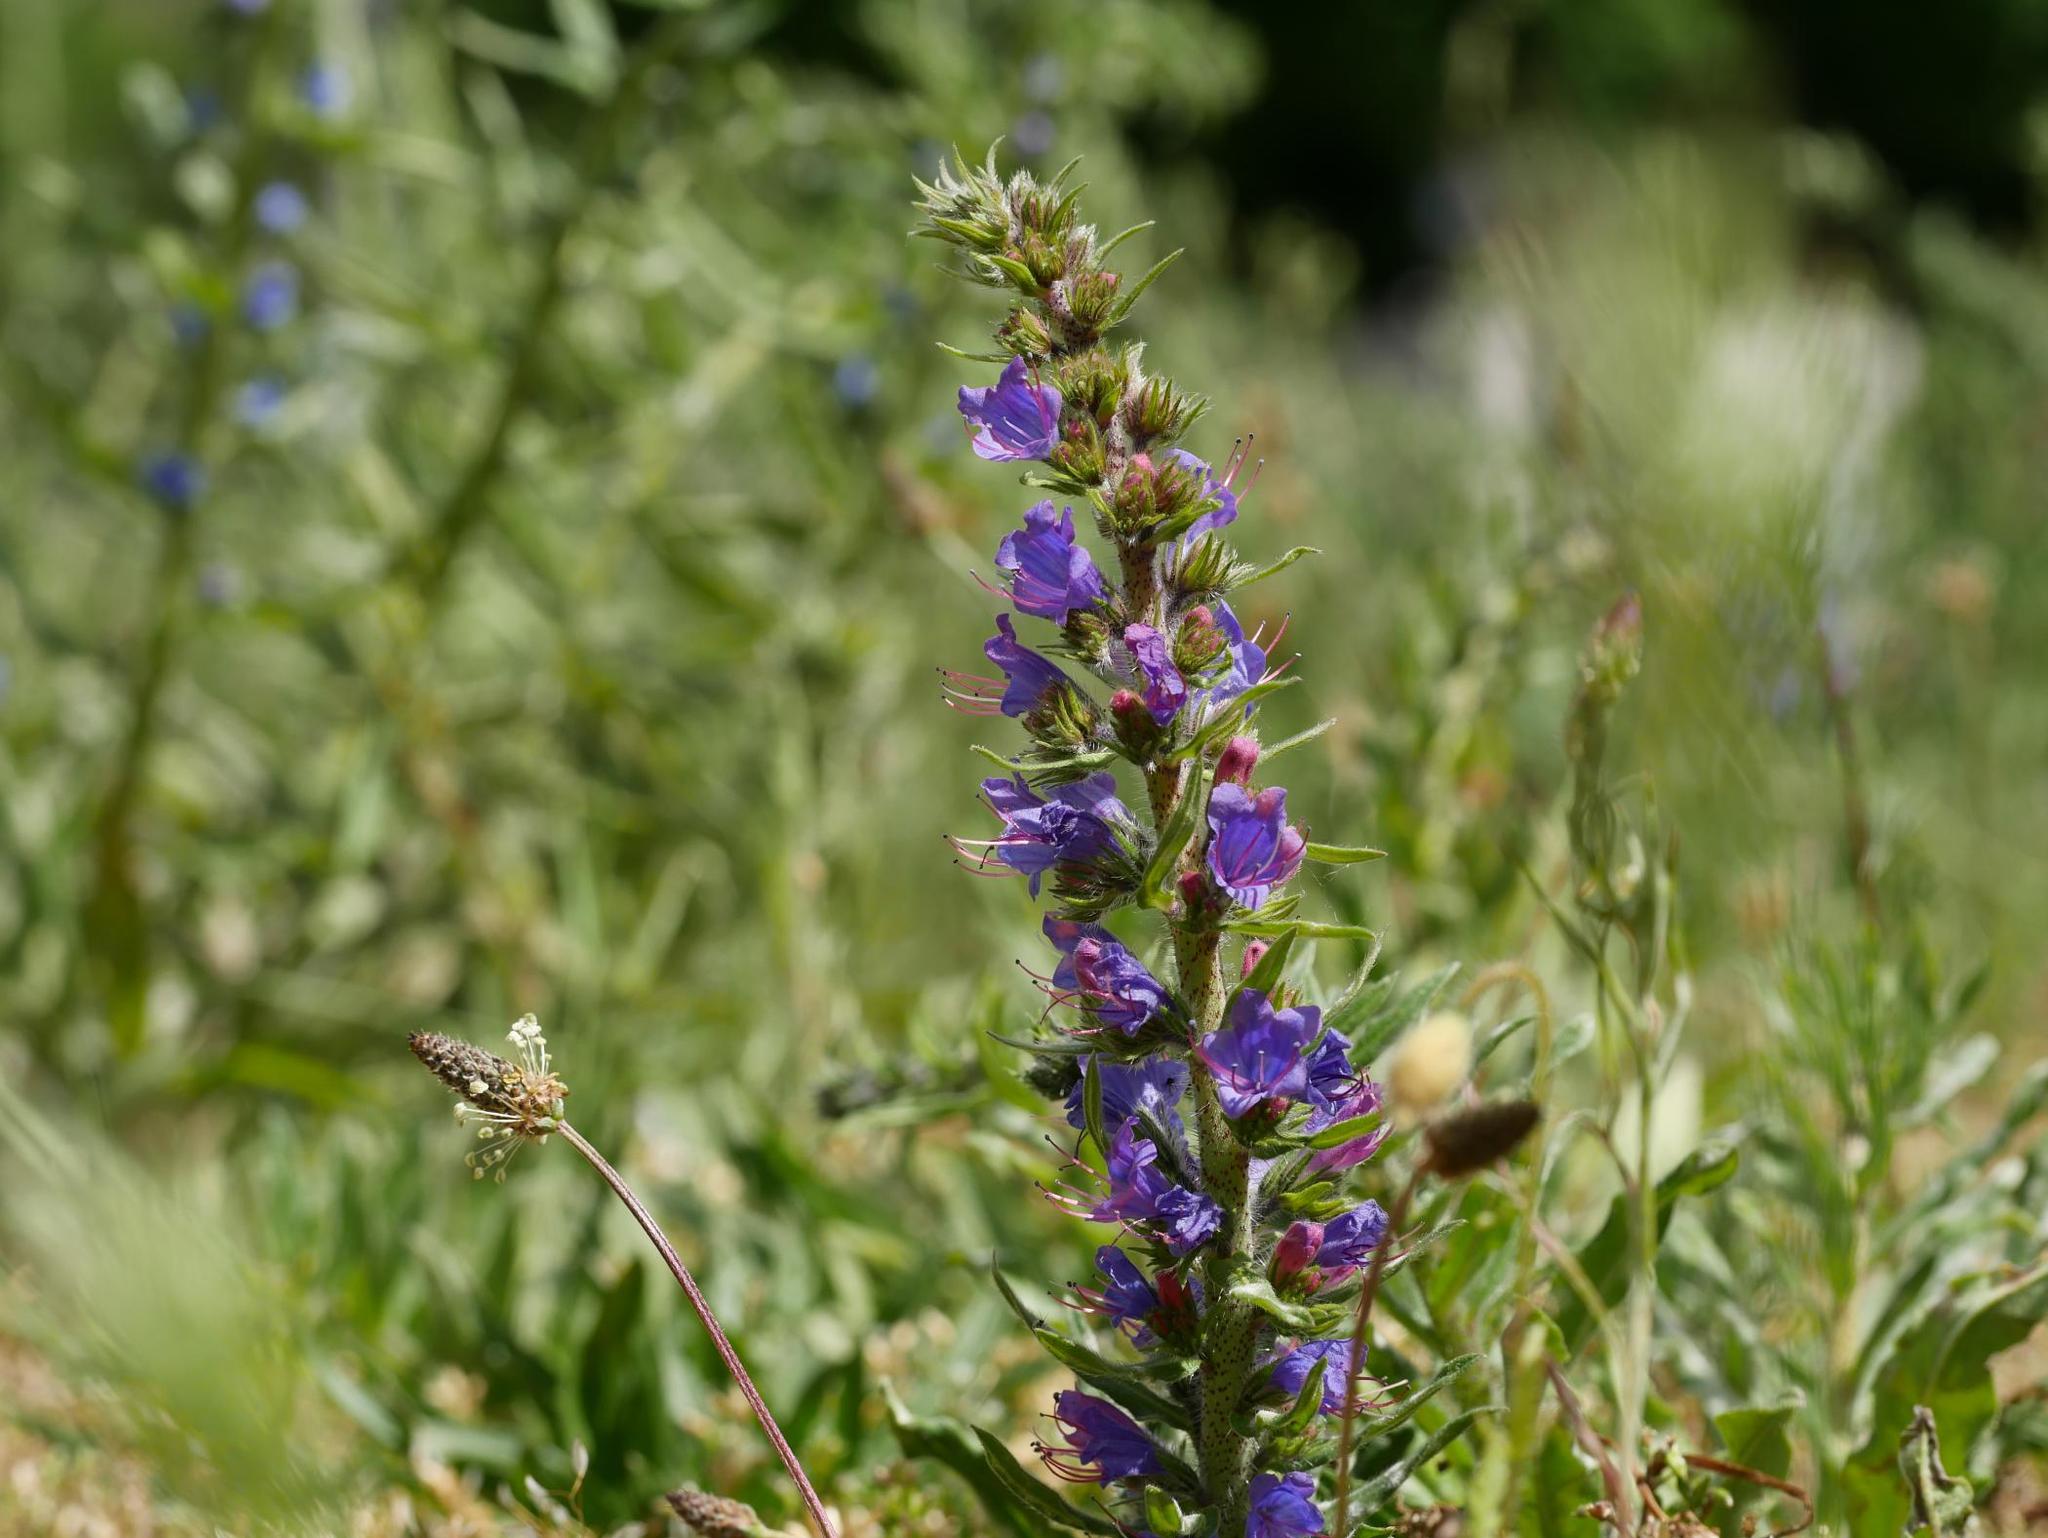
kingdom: Plantae
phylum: Tracheophyta
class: Magnoliopsida
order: Boraginales
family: Boraginaceae
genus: Echium
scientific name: Echium vulgare
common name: Common viper's bugloss
